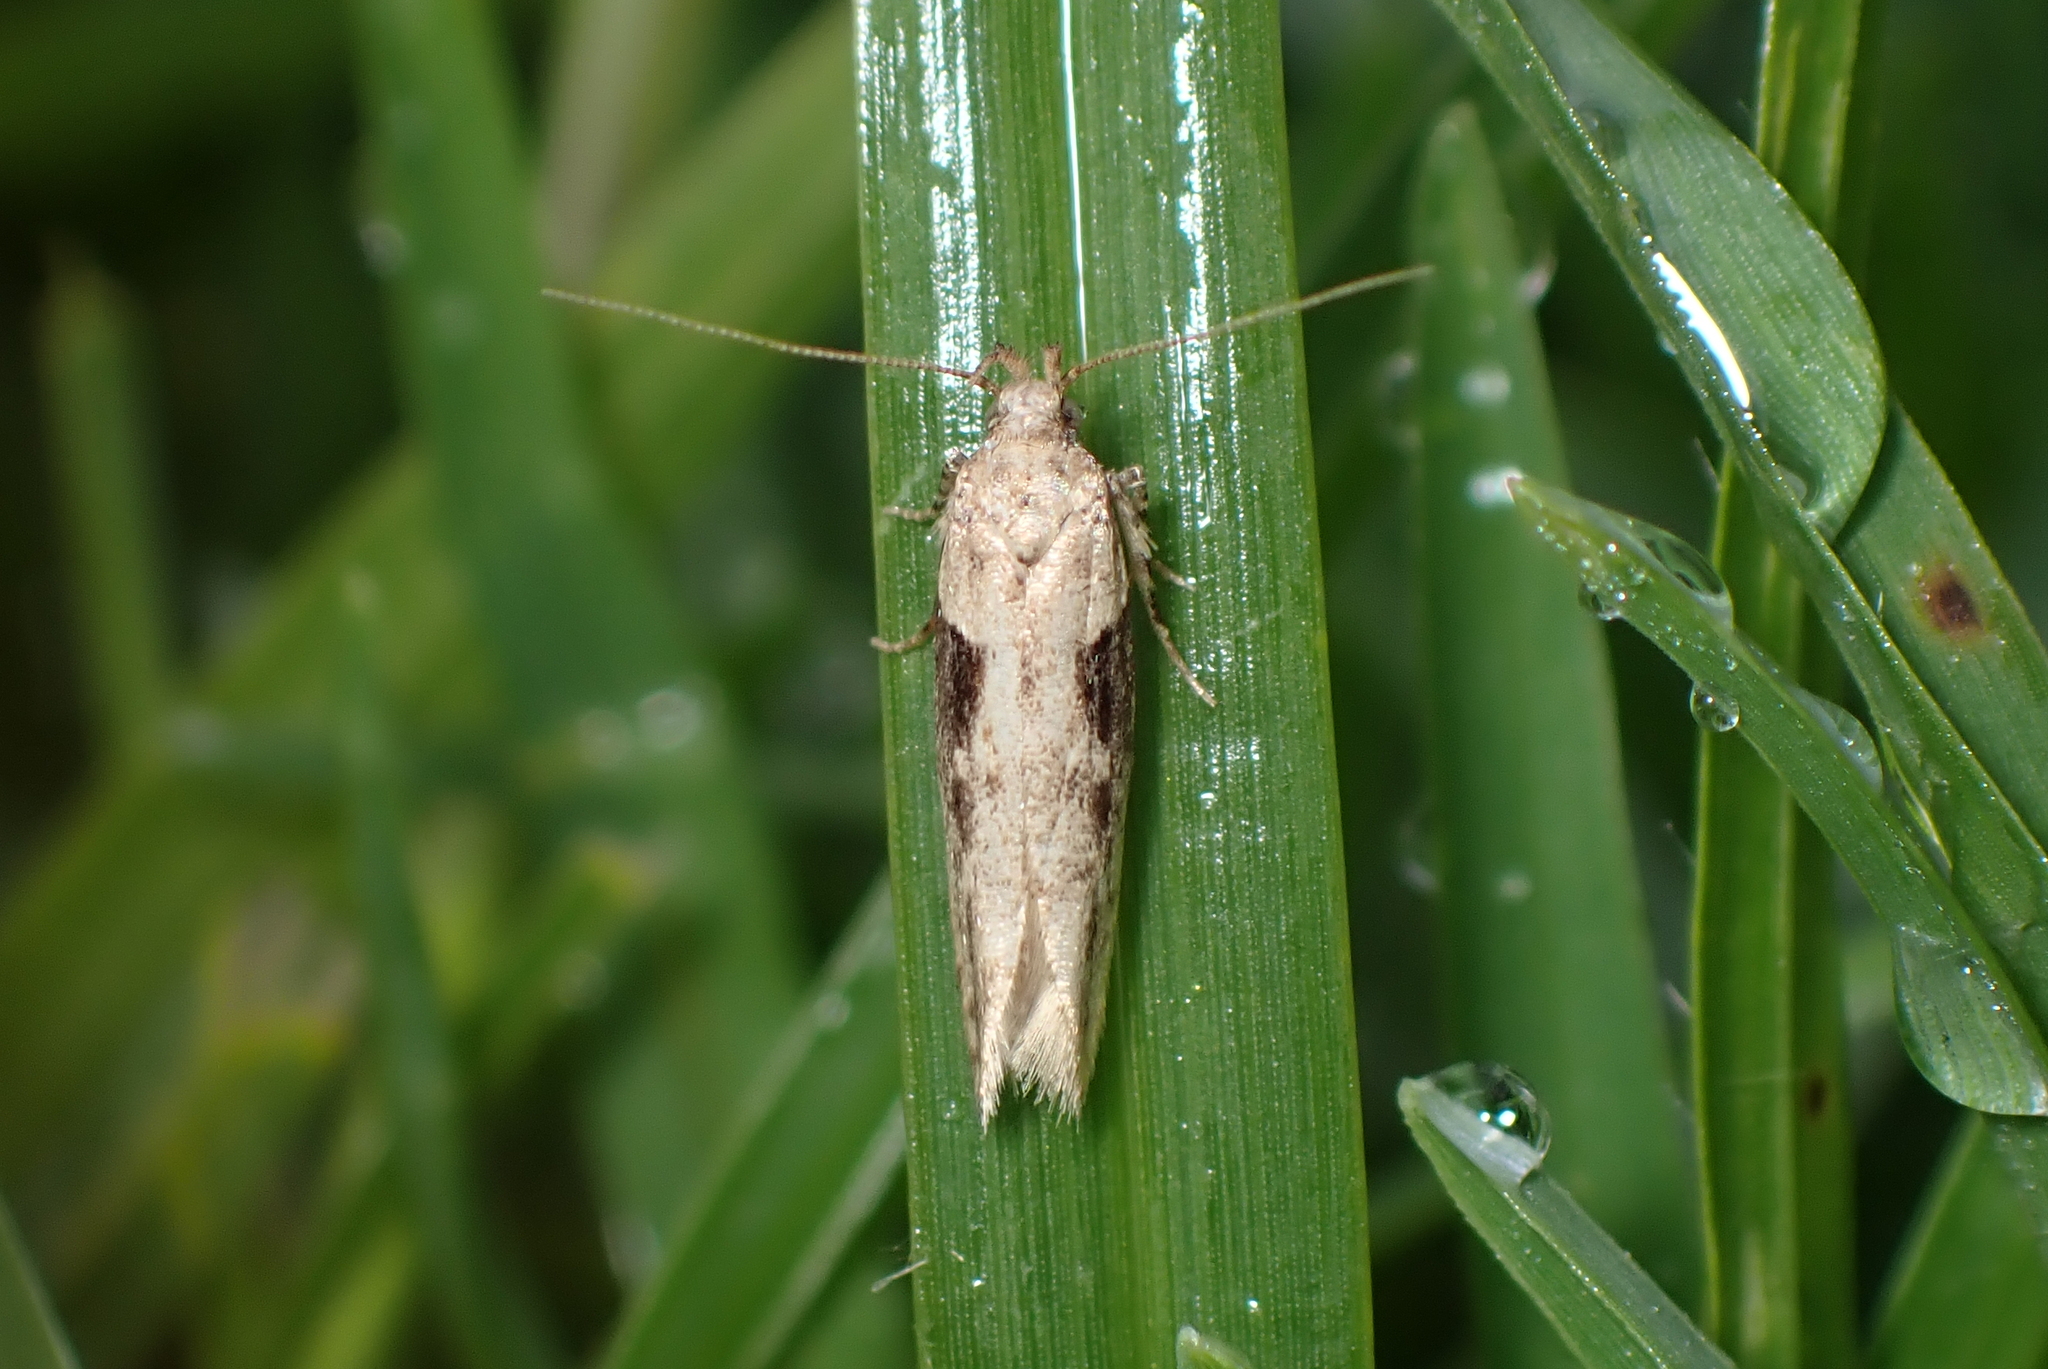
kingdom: Animalia
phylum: Arthropoda
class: Insecta
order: Lepidoptera
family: Gelechiidae
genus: Symmetrischema
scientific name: Symmetrischema tangolias
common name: Moth
